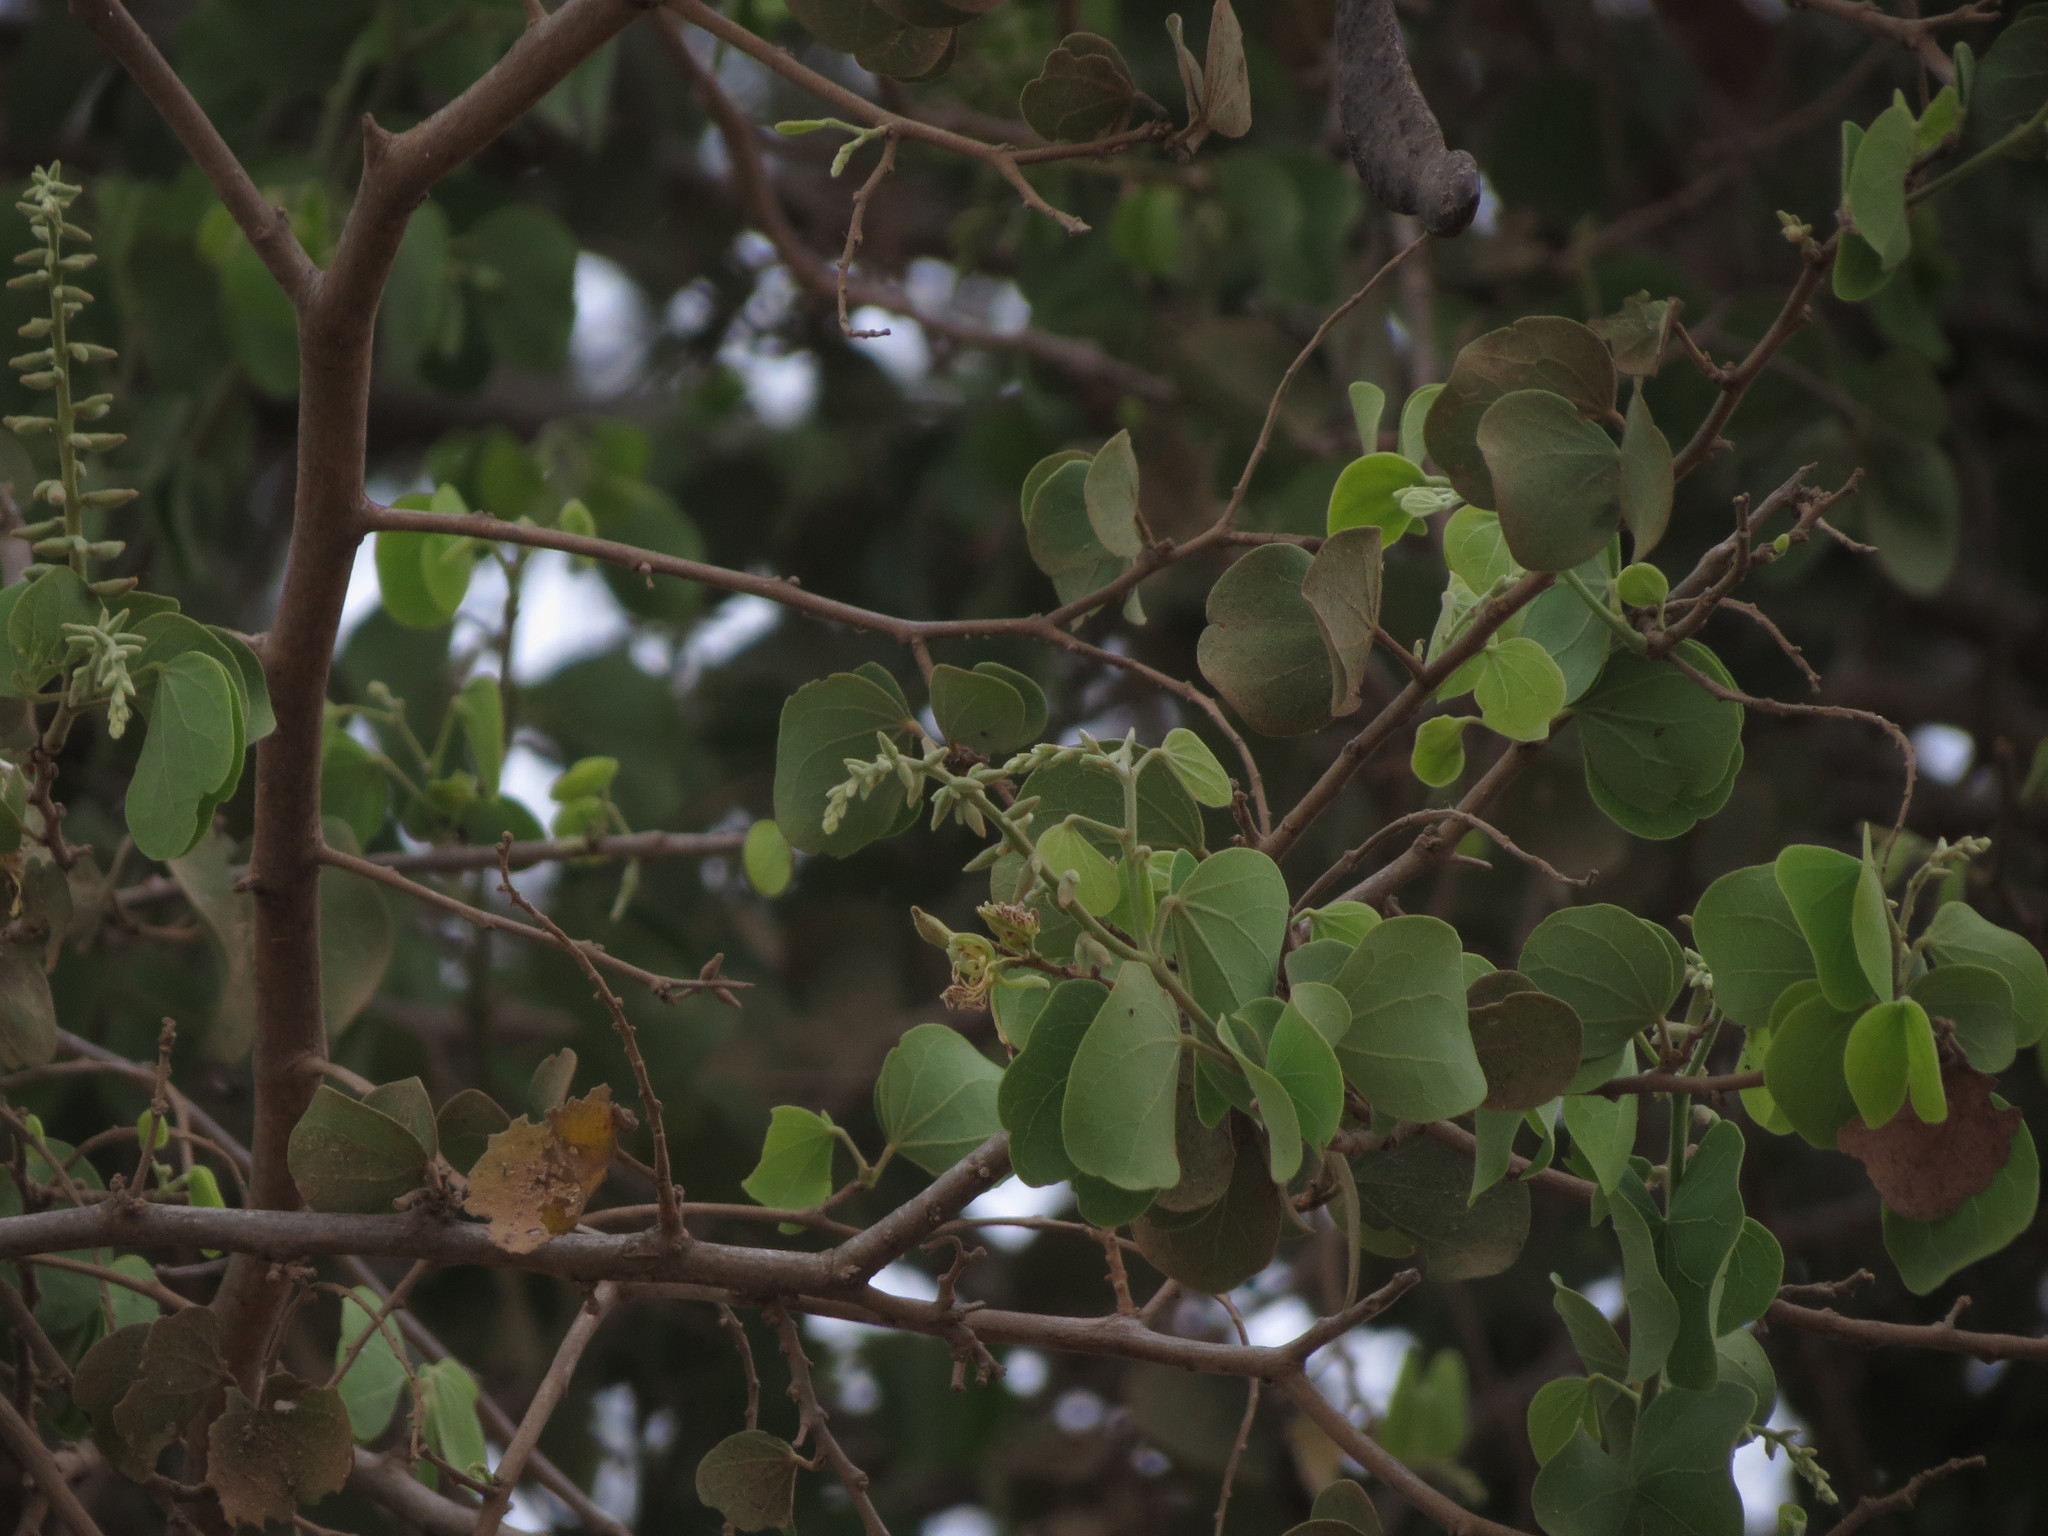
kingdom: Plantae
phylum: Tracheophyta
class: Magnoliopsida
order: Fabales
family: Fabaceae
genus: Bauhinia
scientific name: Bauhinia racemosa
